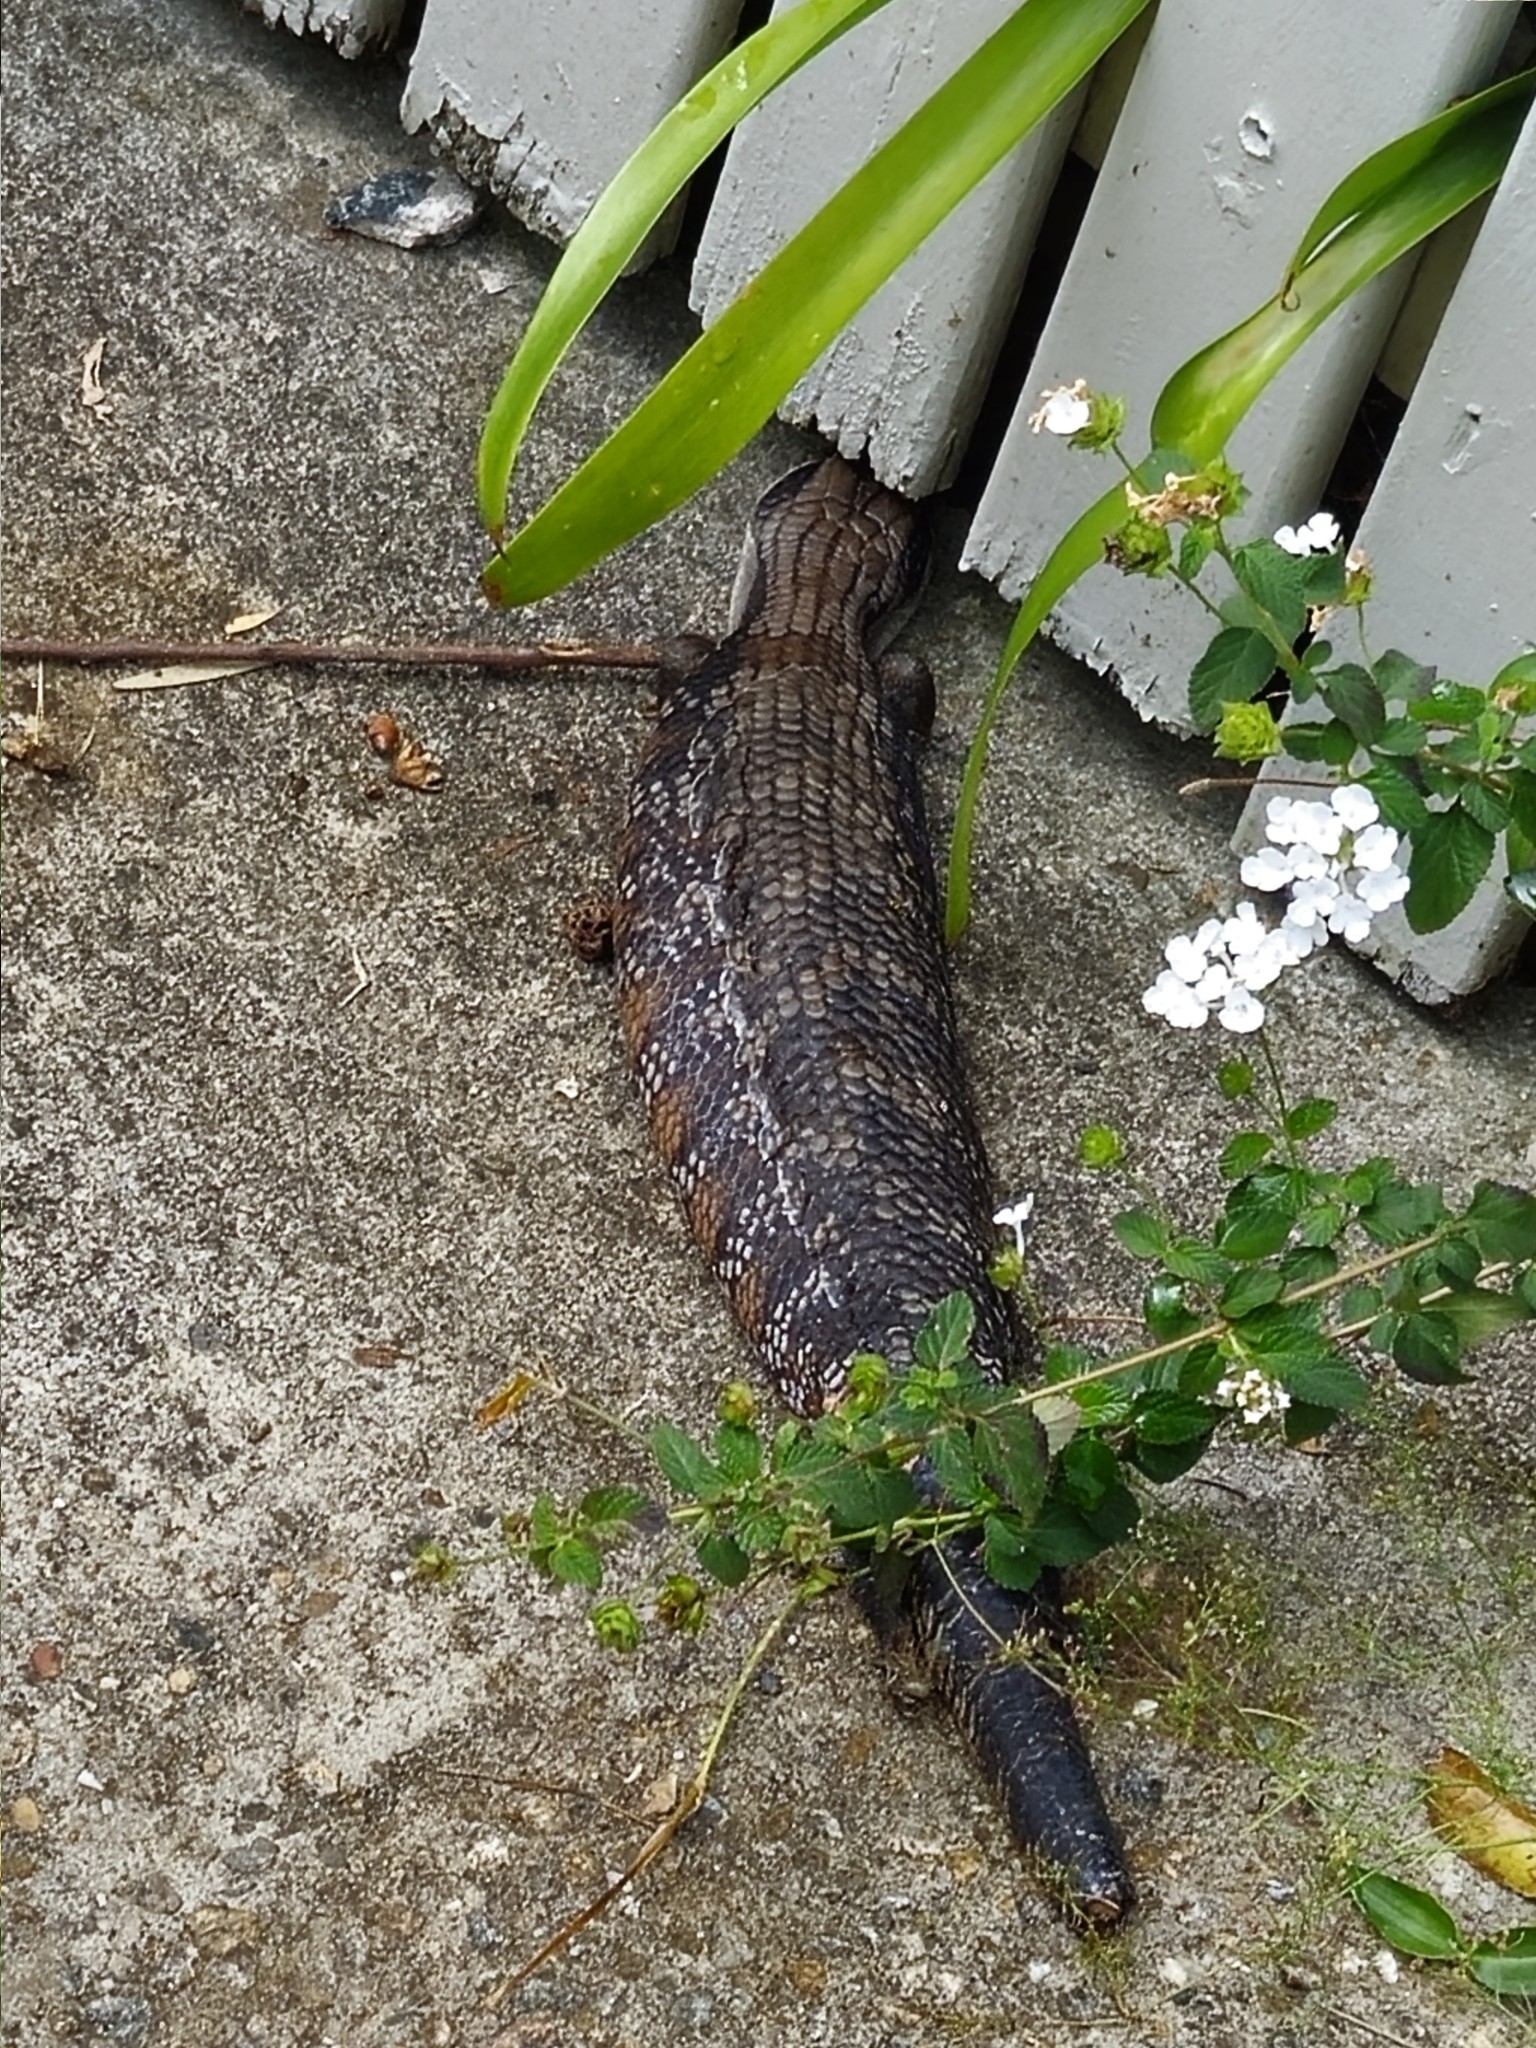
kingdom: Animalia
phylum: Chordata
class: Squamata
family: Scincidae
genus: Tiliqua
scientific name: Tiliqua scincoides
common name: Common bluetongue
